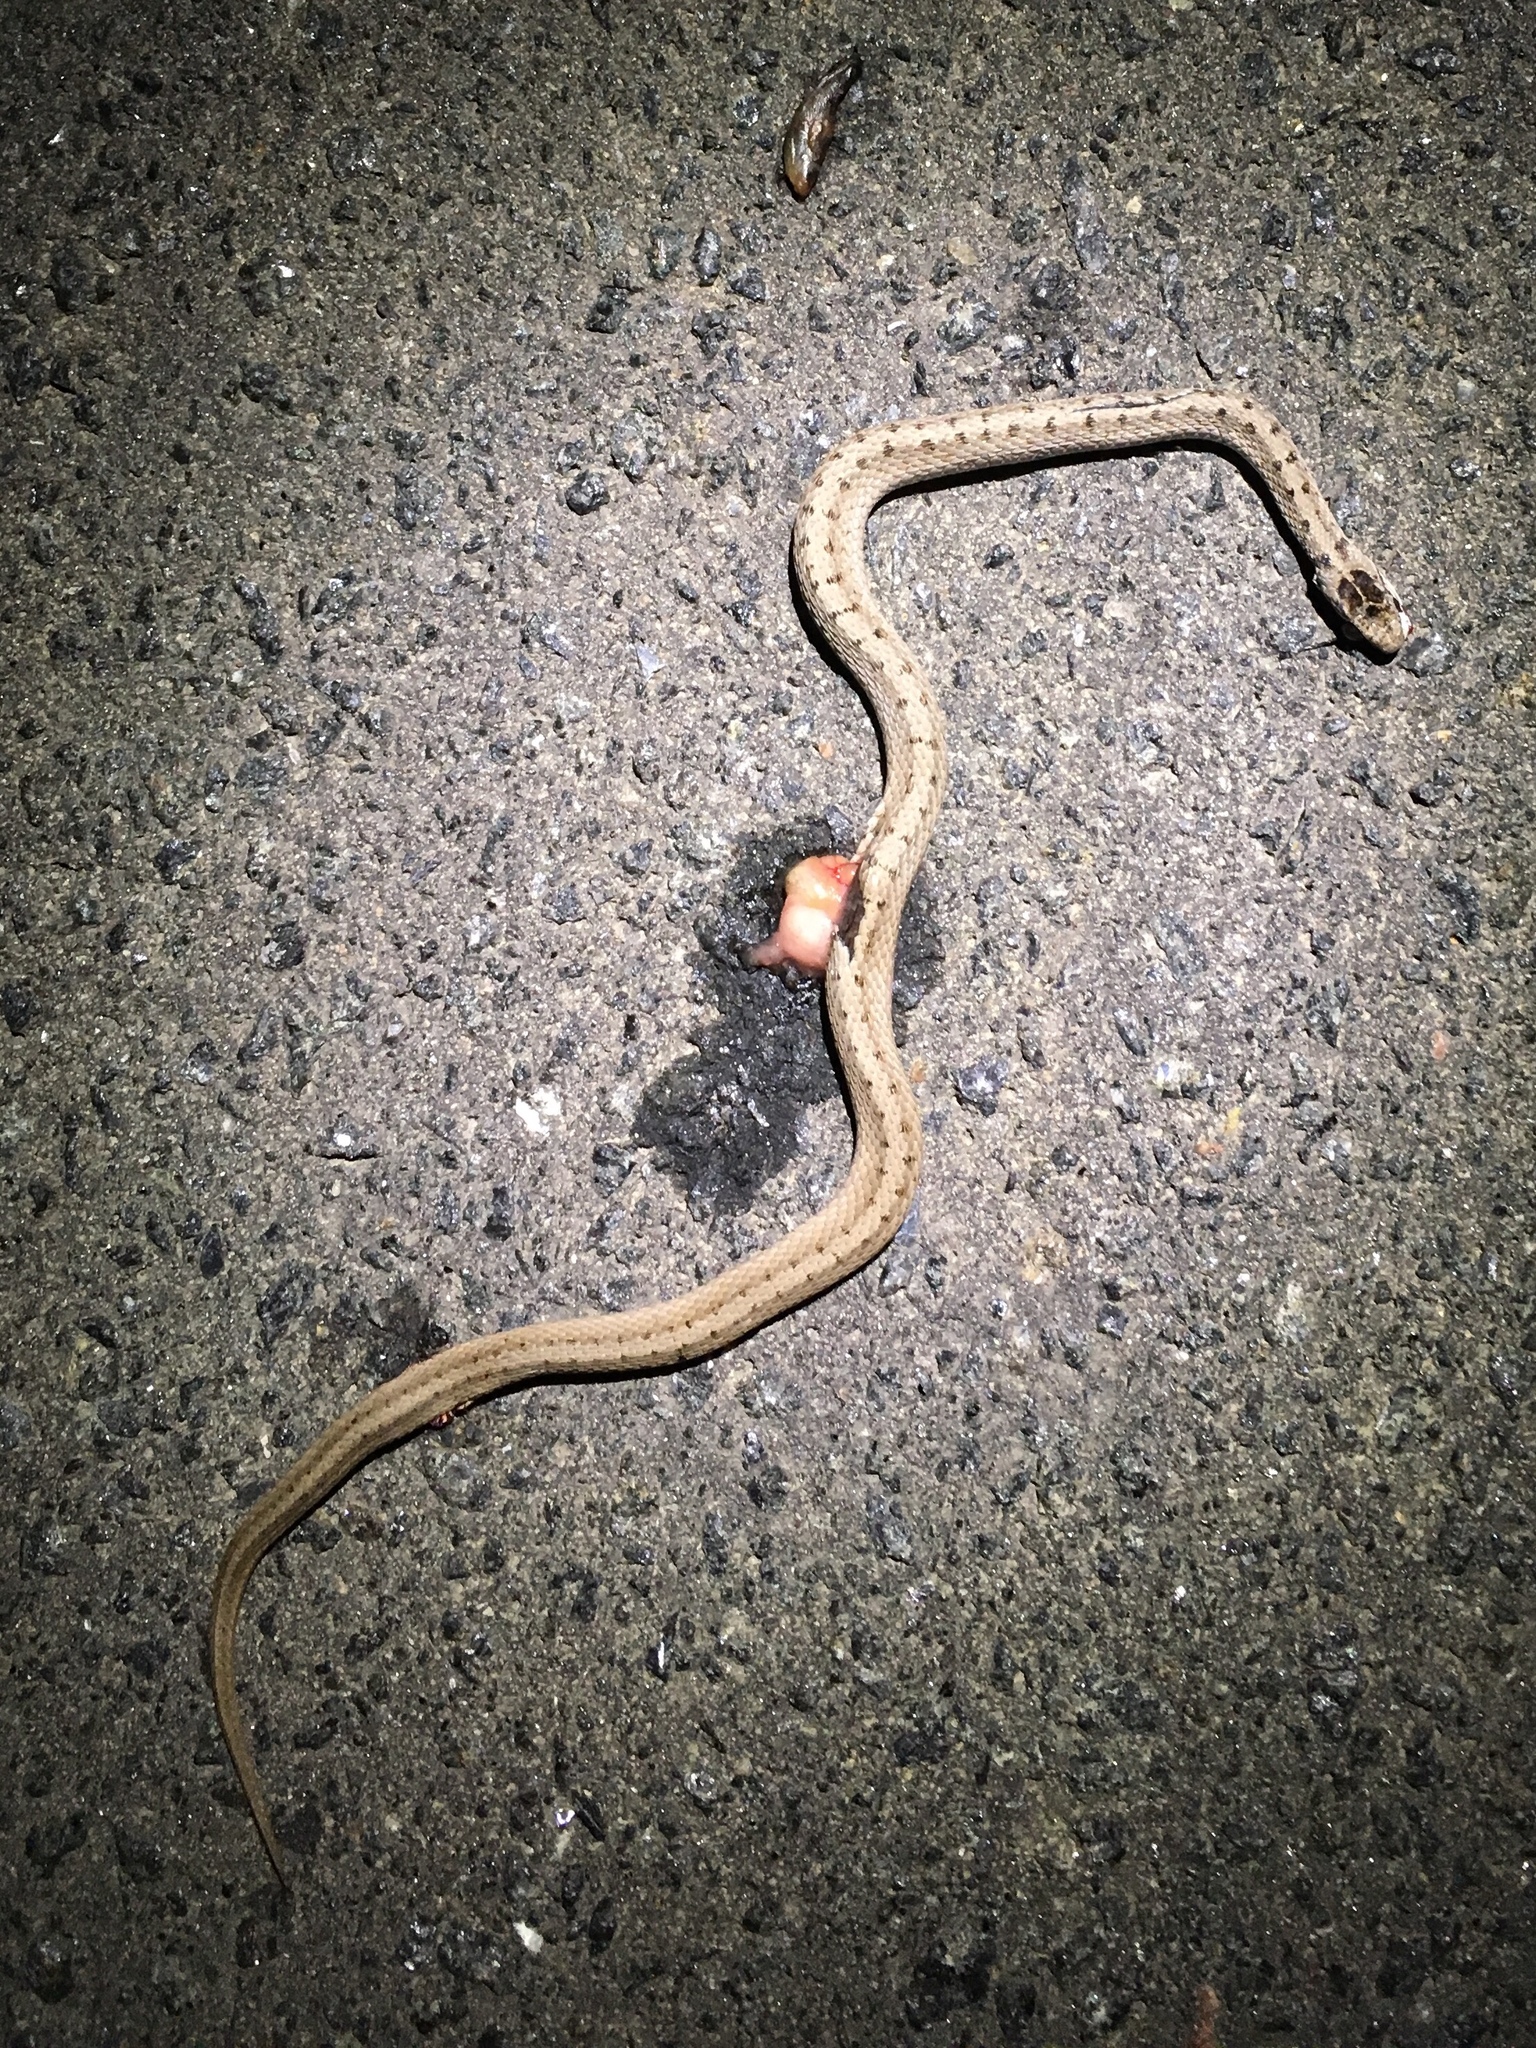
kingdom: Animalia
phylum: Chordata
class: Squamata
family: Colubridae
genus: Storeria
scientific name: Storeria dekayi
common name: (dekay’s) brown snake
